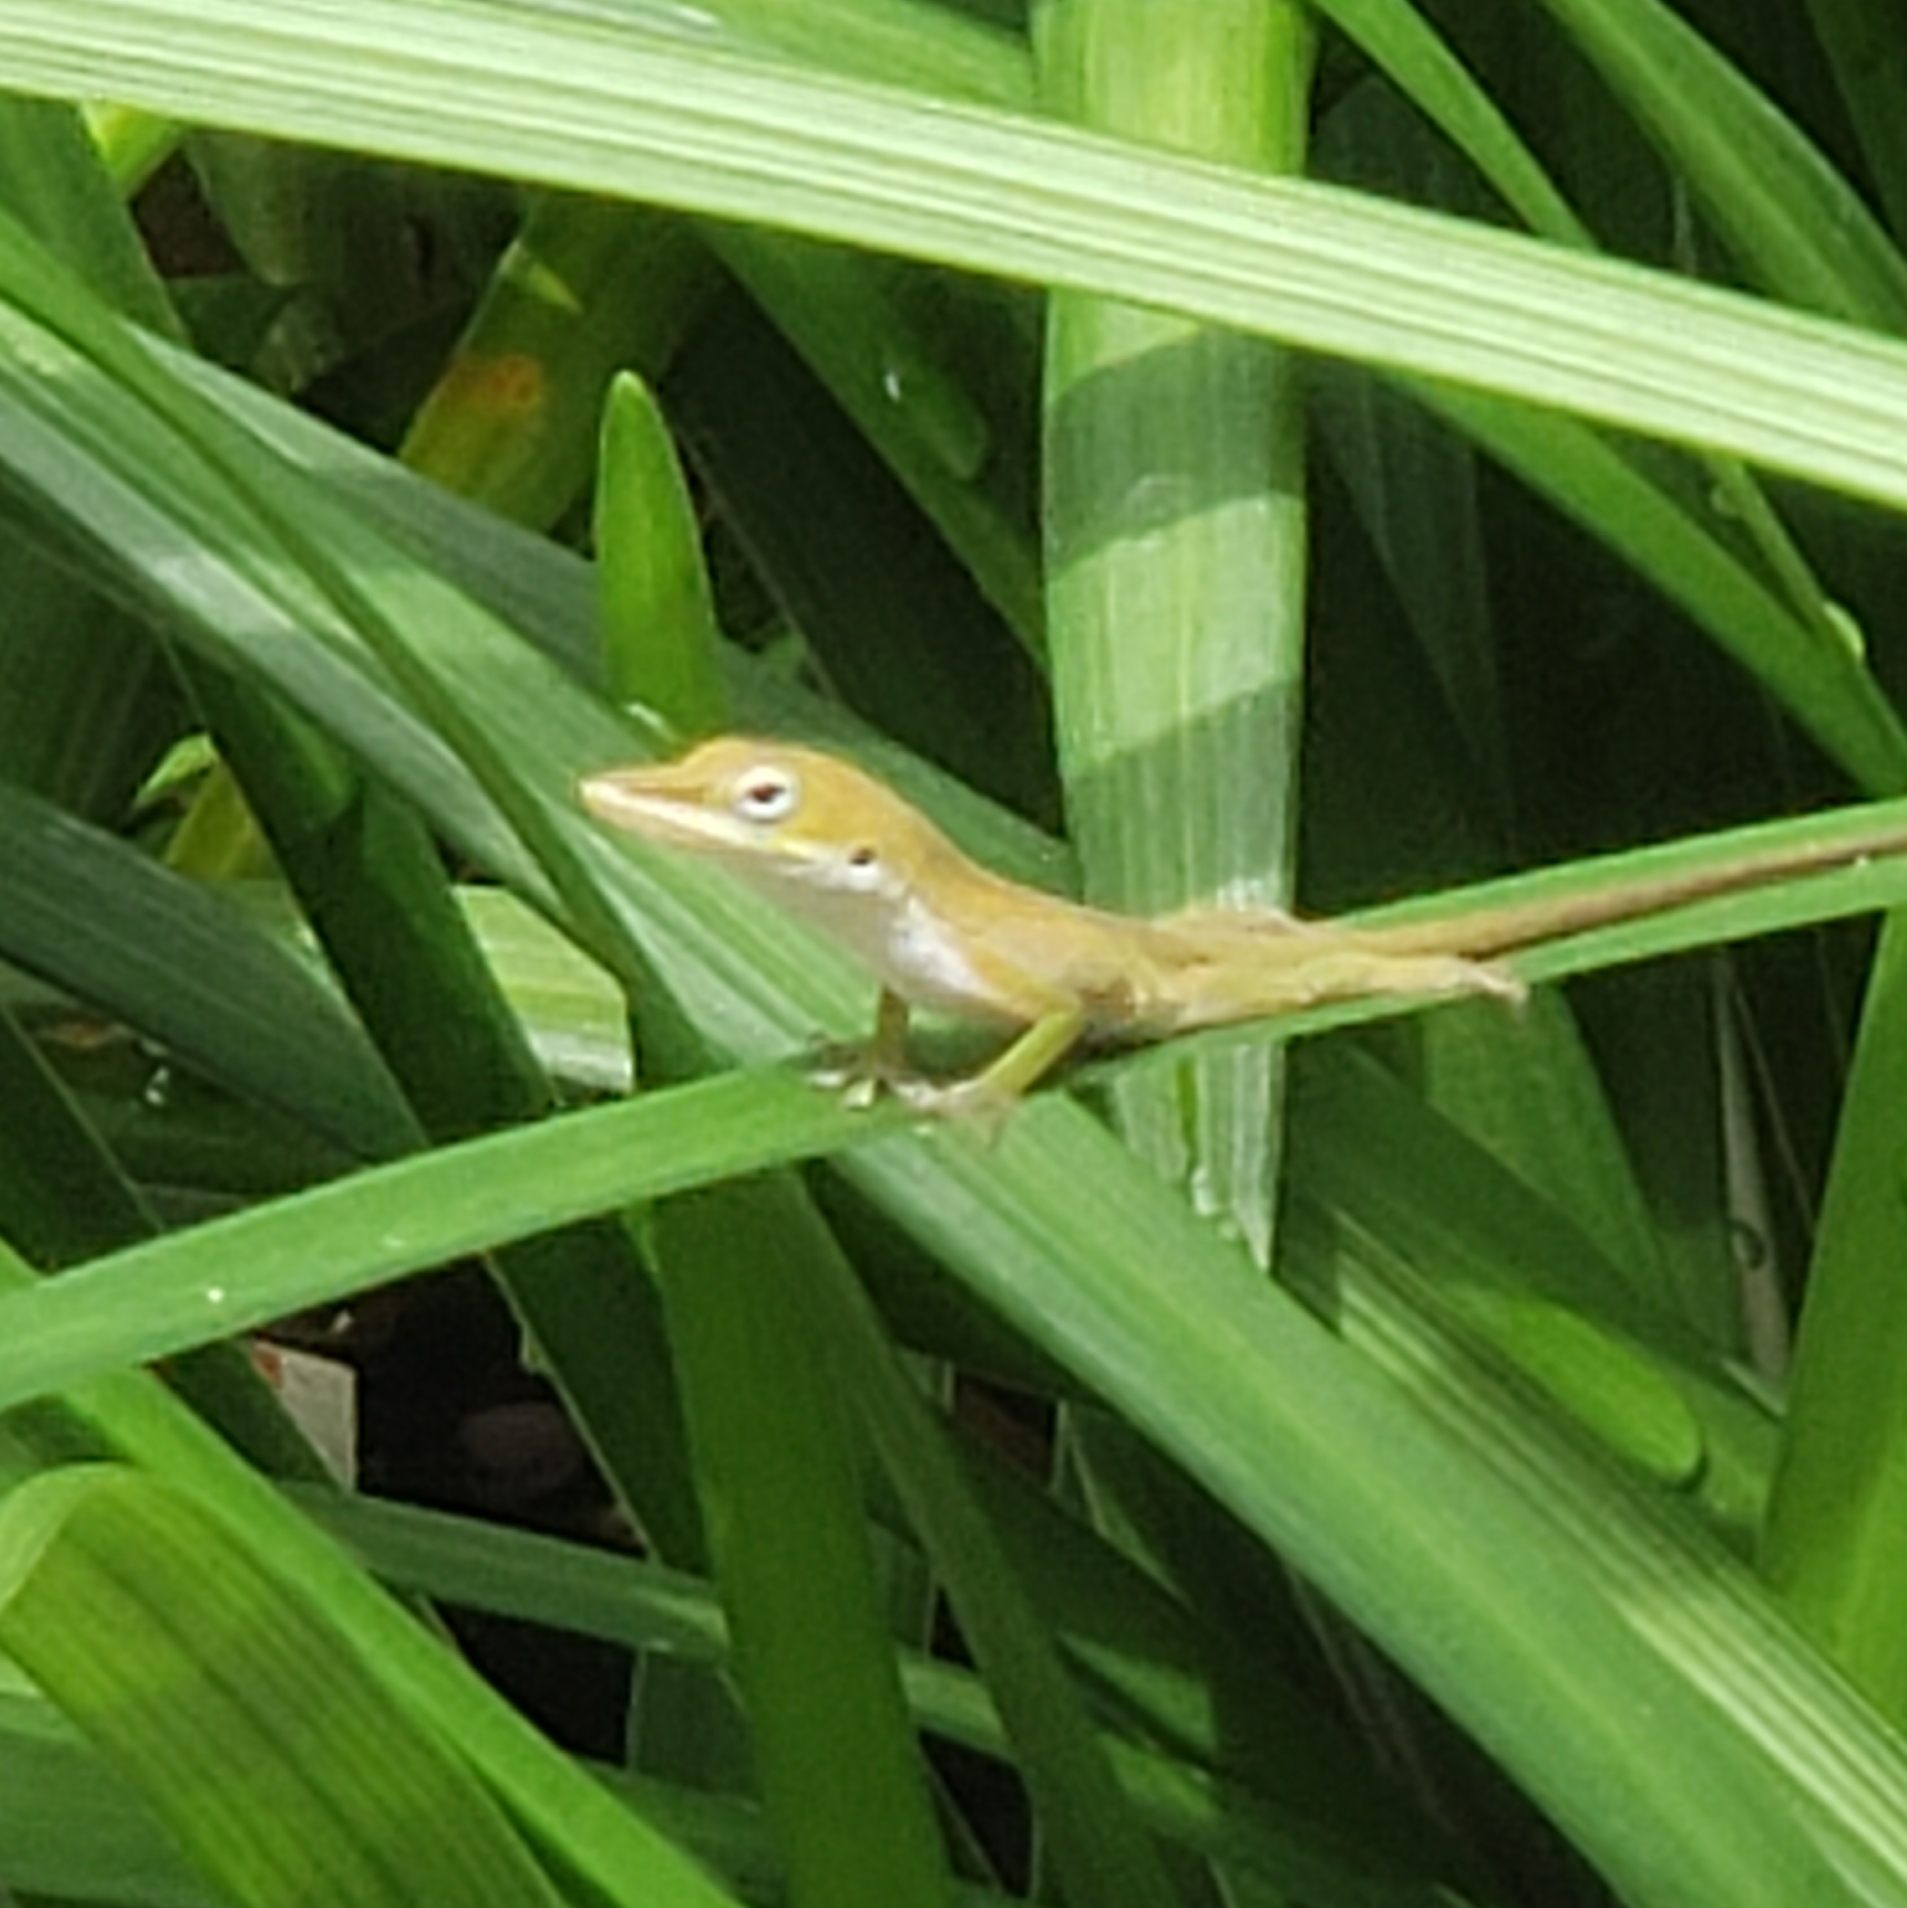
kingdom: Animalia
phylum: Chordata
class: Squamata
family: Dactyloidae
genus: Anolis
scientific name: Anolis carolinensis
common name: Green anole
